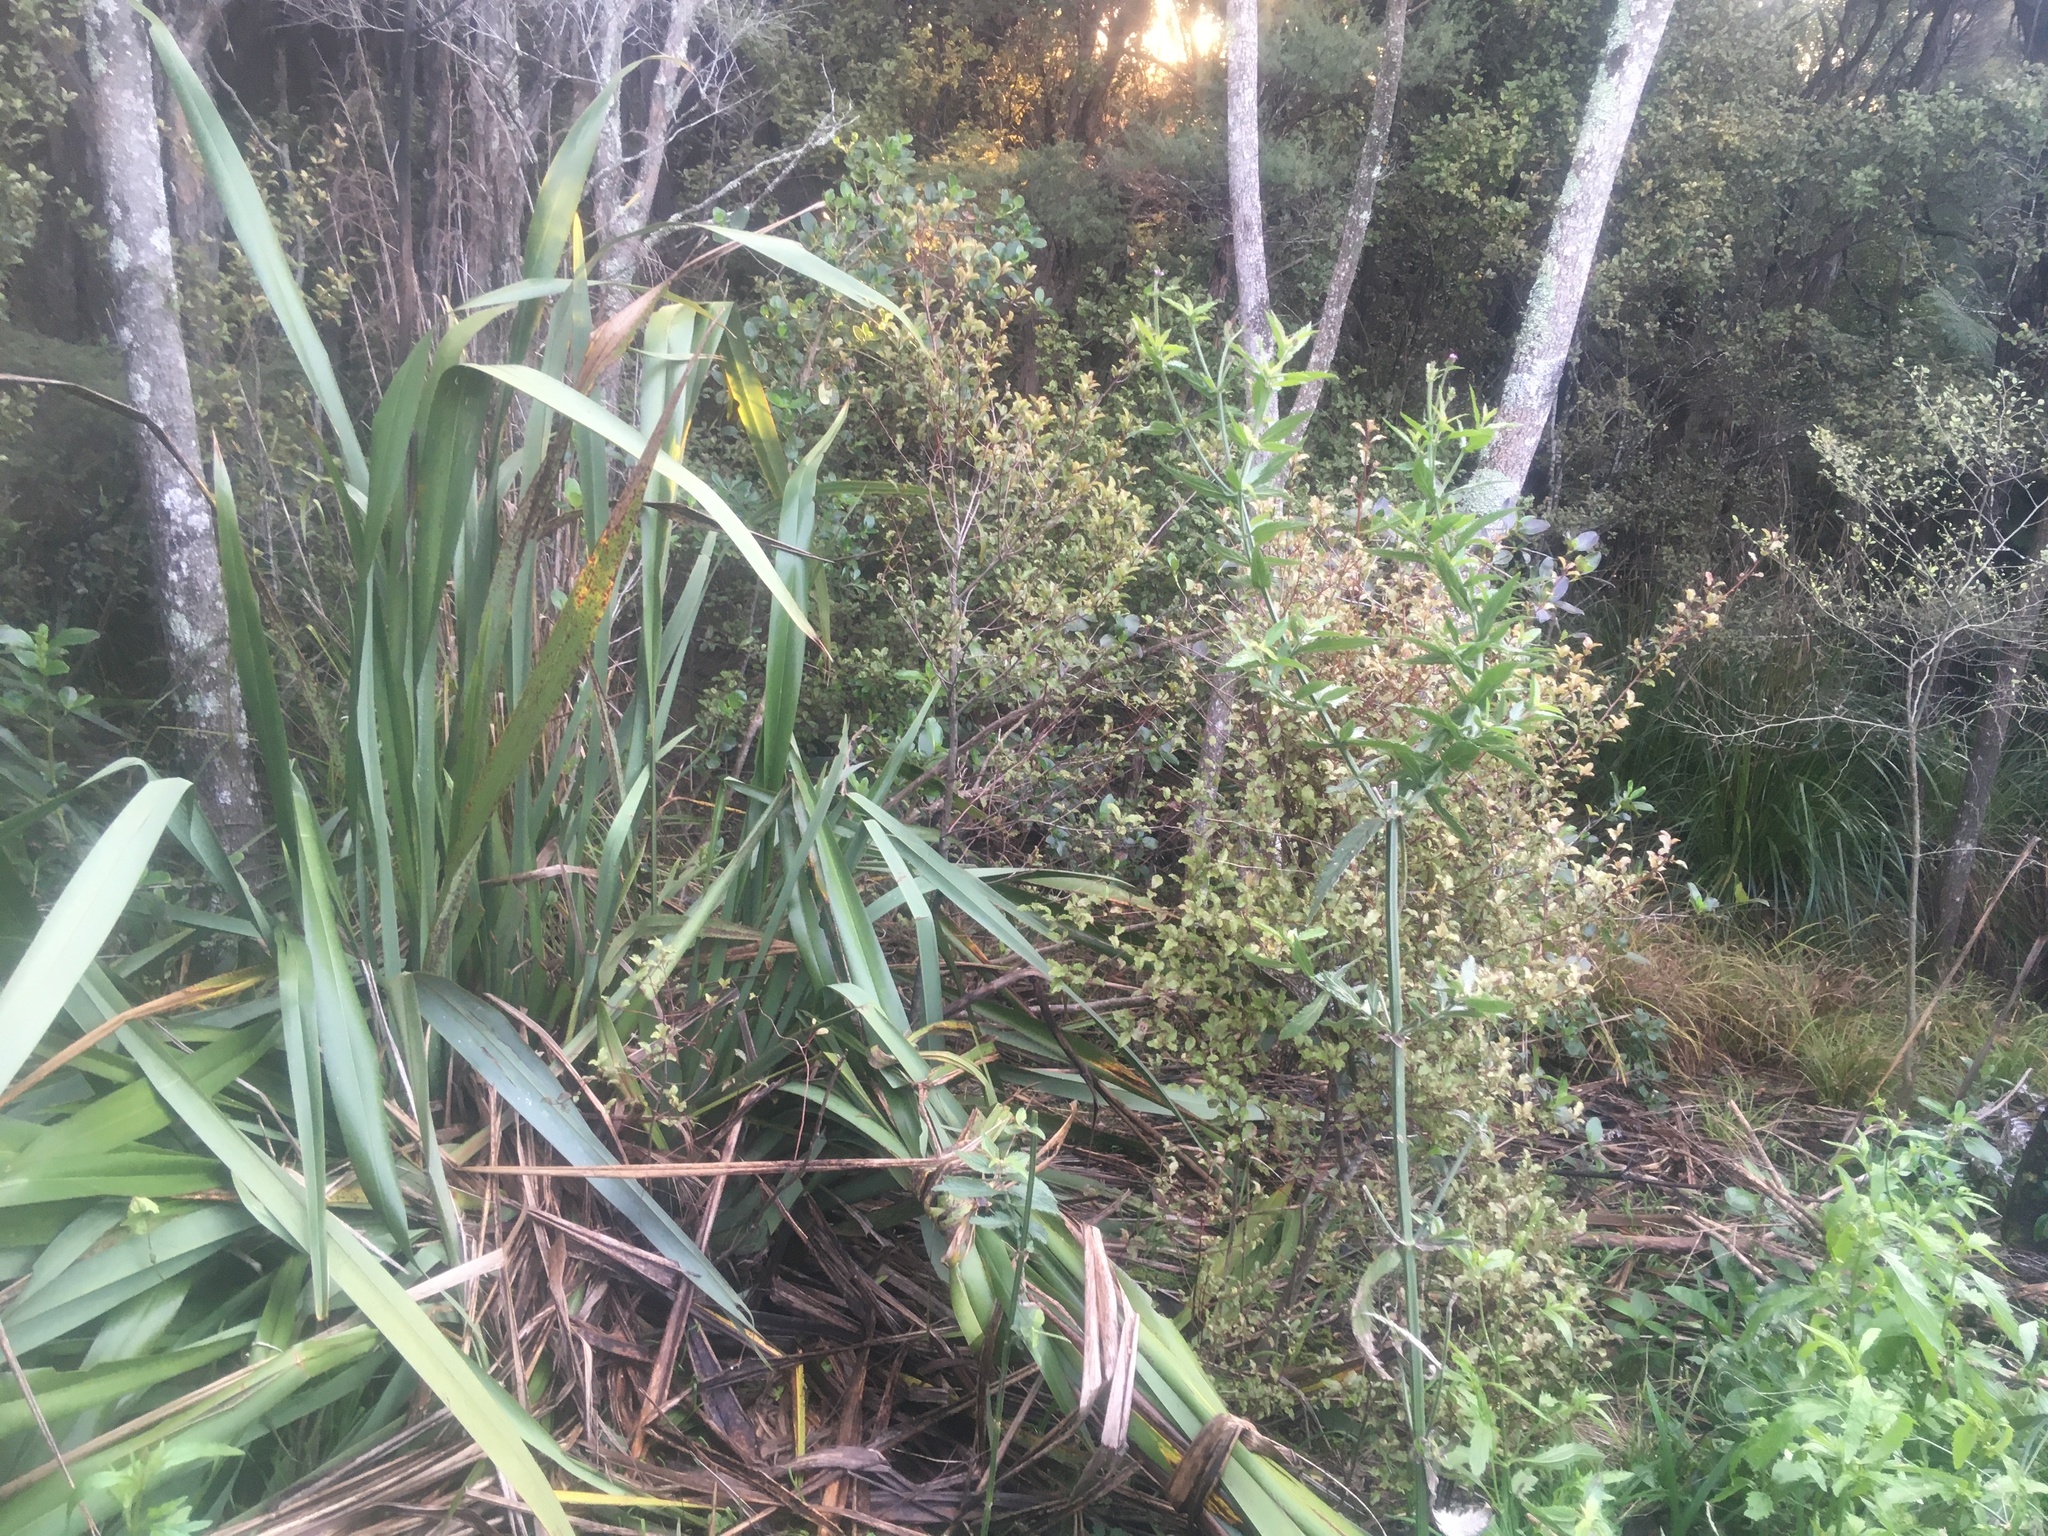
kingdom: Plantae
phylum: Tracheophyta
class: Magnoliopsida
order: Ericales
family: Primulaceae
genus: Myrsine
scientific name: Myrsine australis
